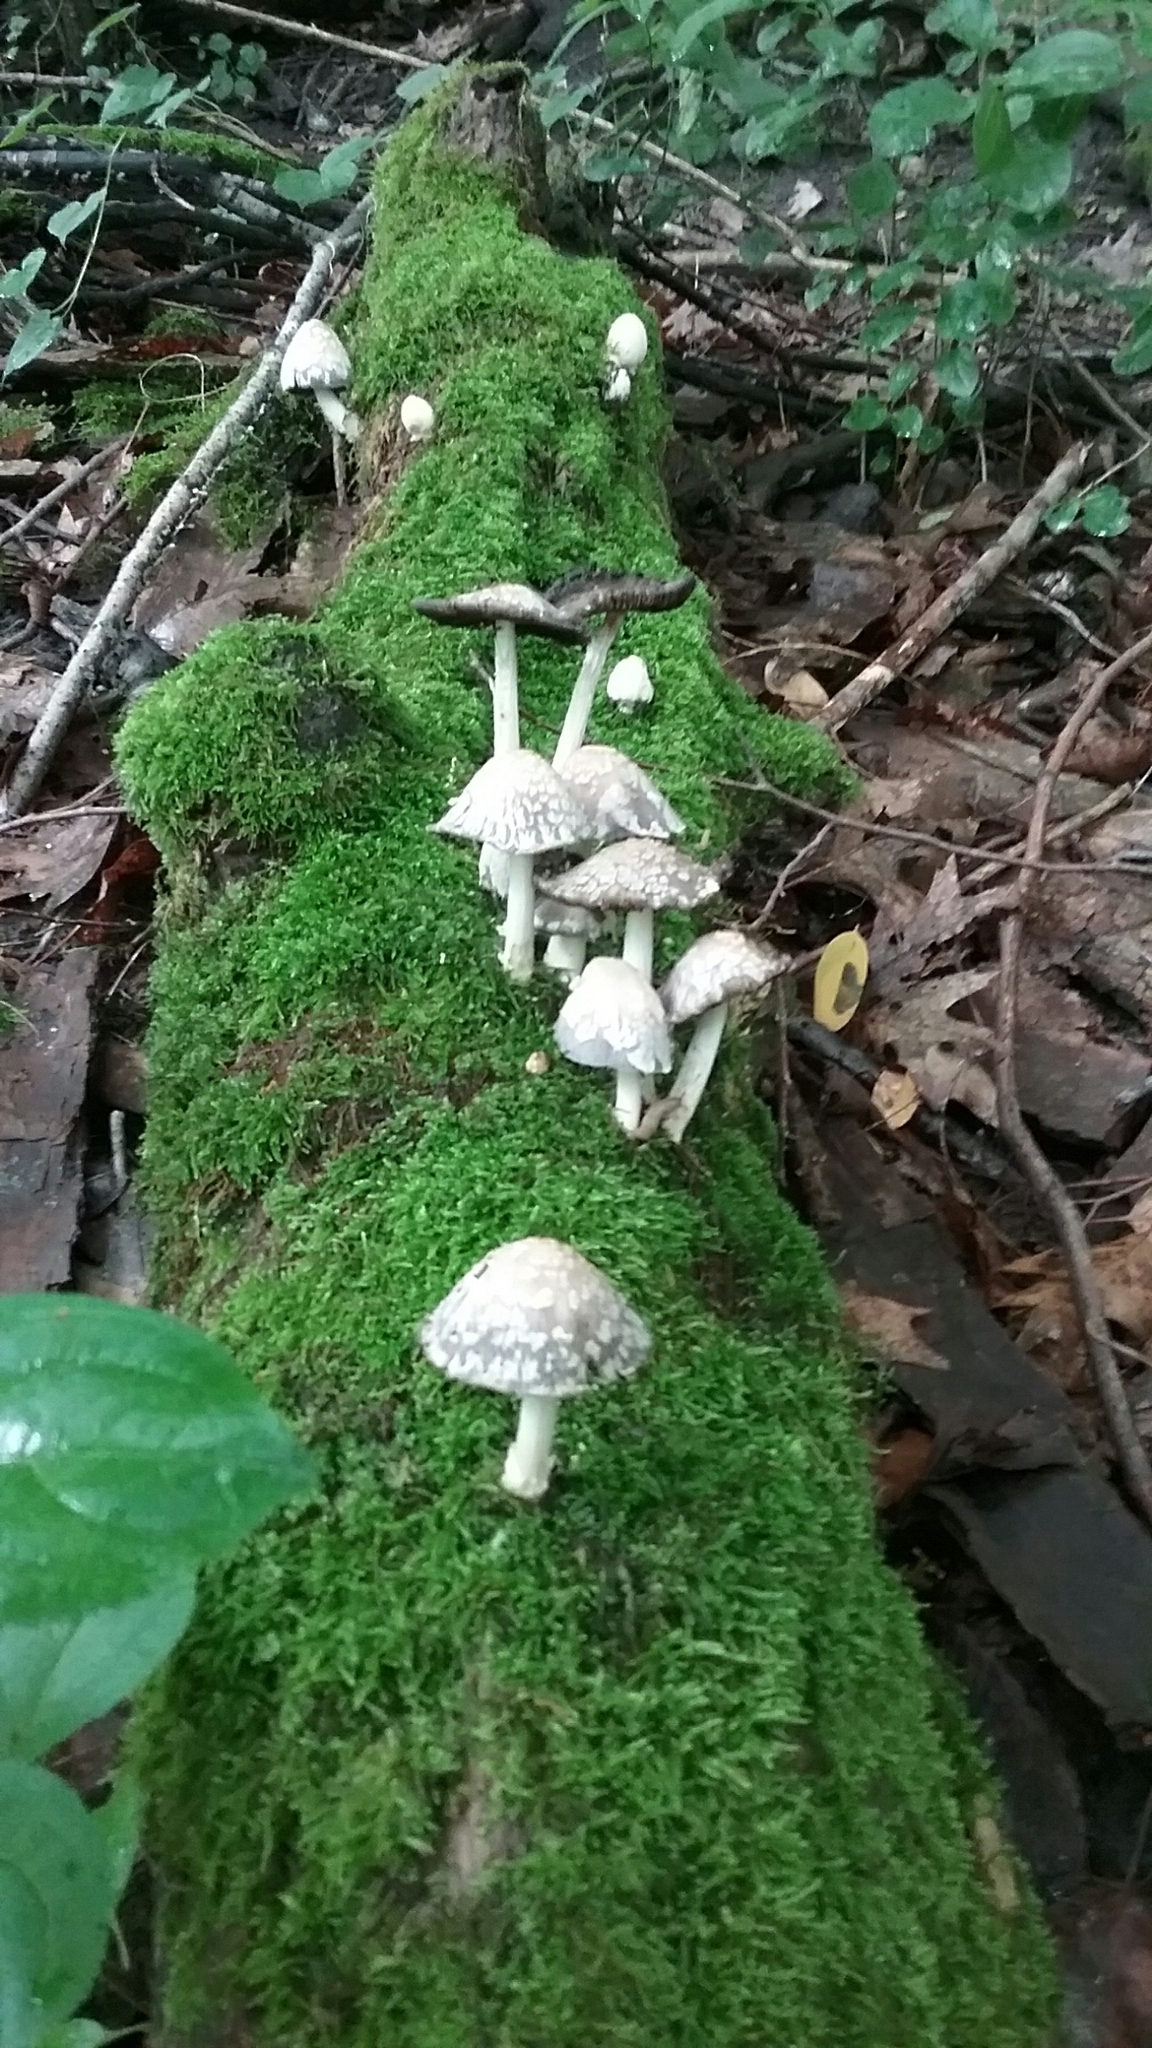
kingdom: Fungi
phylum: Basidiomycota
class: Agaricomycetes
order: Agaricales
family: Psathyrellaceae
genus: Coprinopsis
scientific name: Coprinopsis variegata
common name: Scaly ink cap
